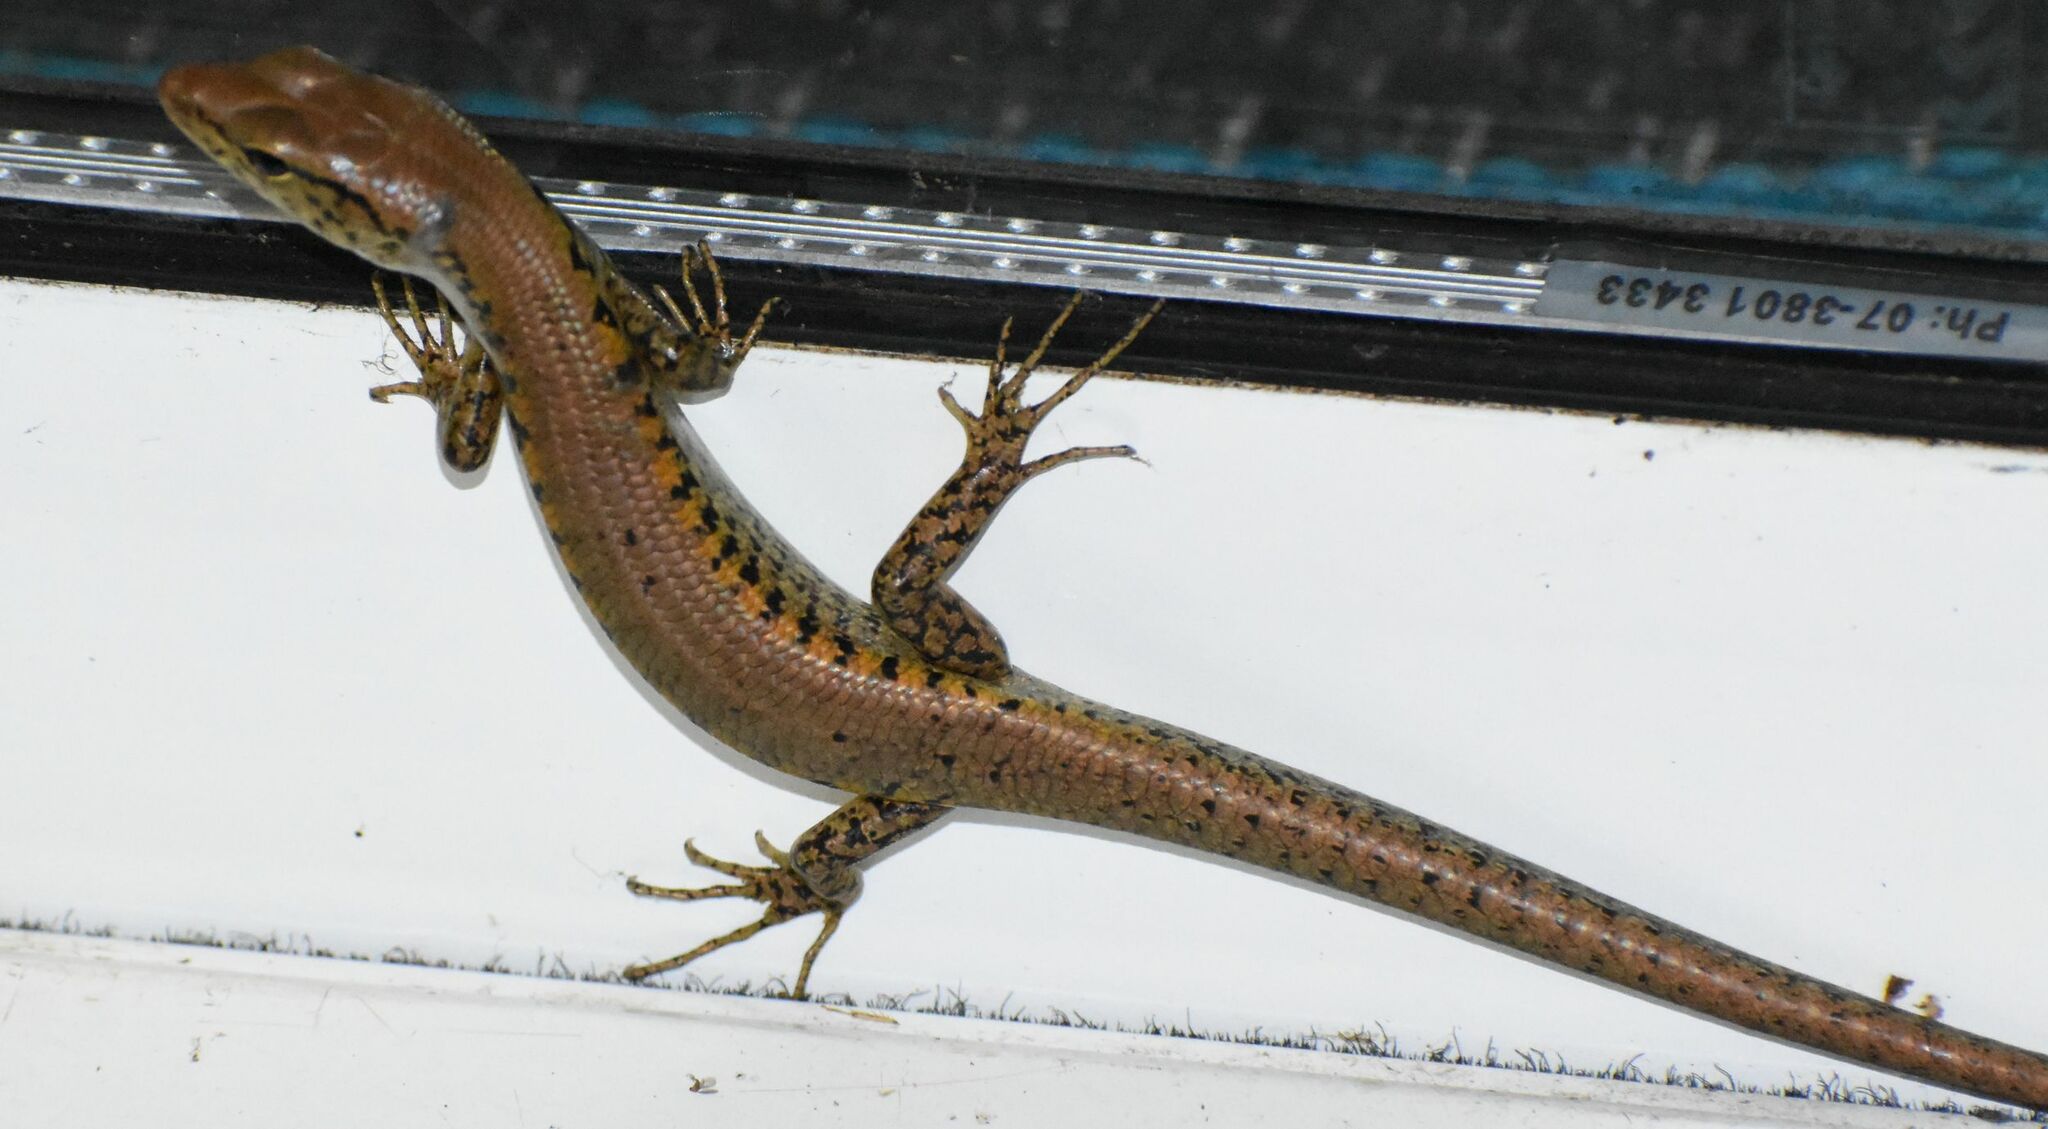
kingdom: Animalia
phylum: Chordata
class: Squamata
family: Scincidae
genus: Concinnia
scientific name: Concinnia tigrina
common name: Rainforest water-skink
